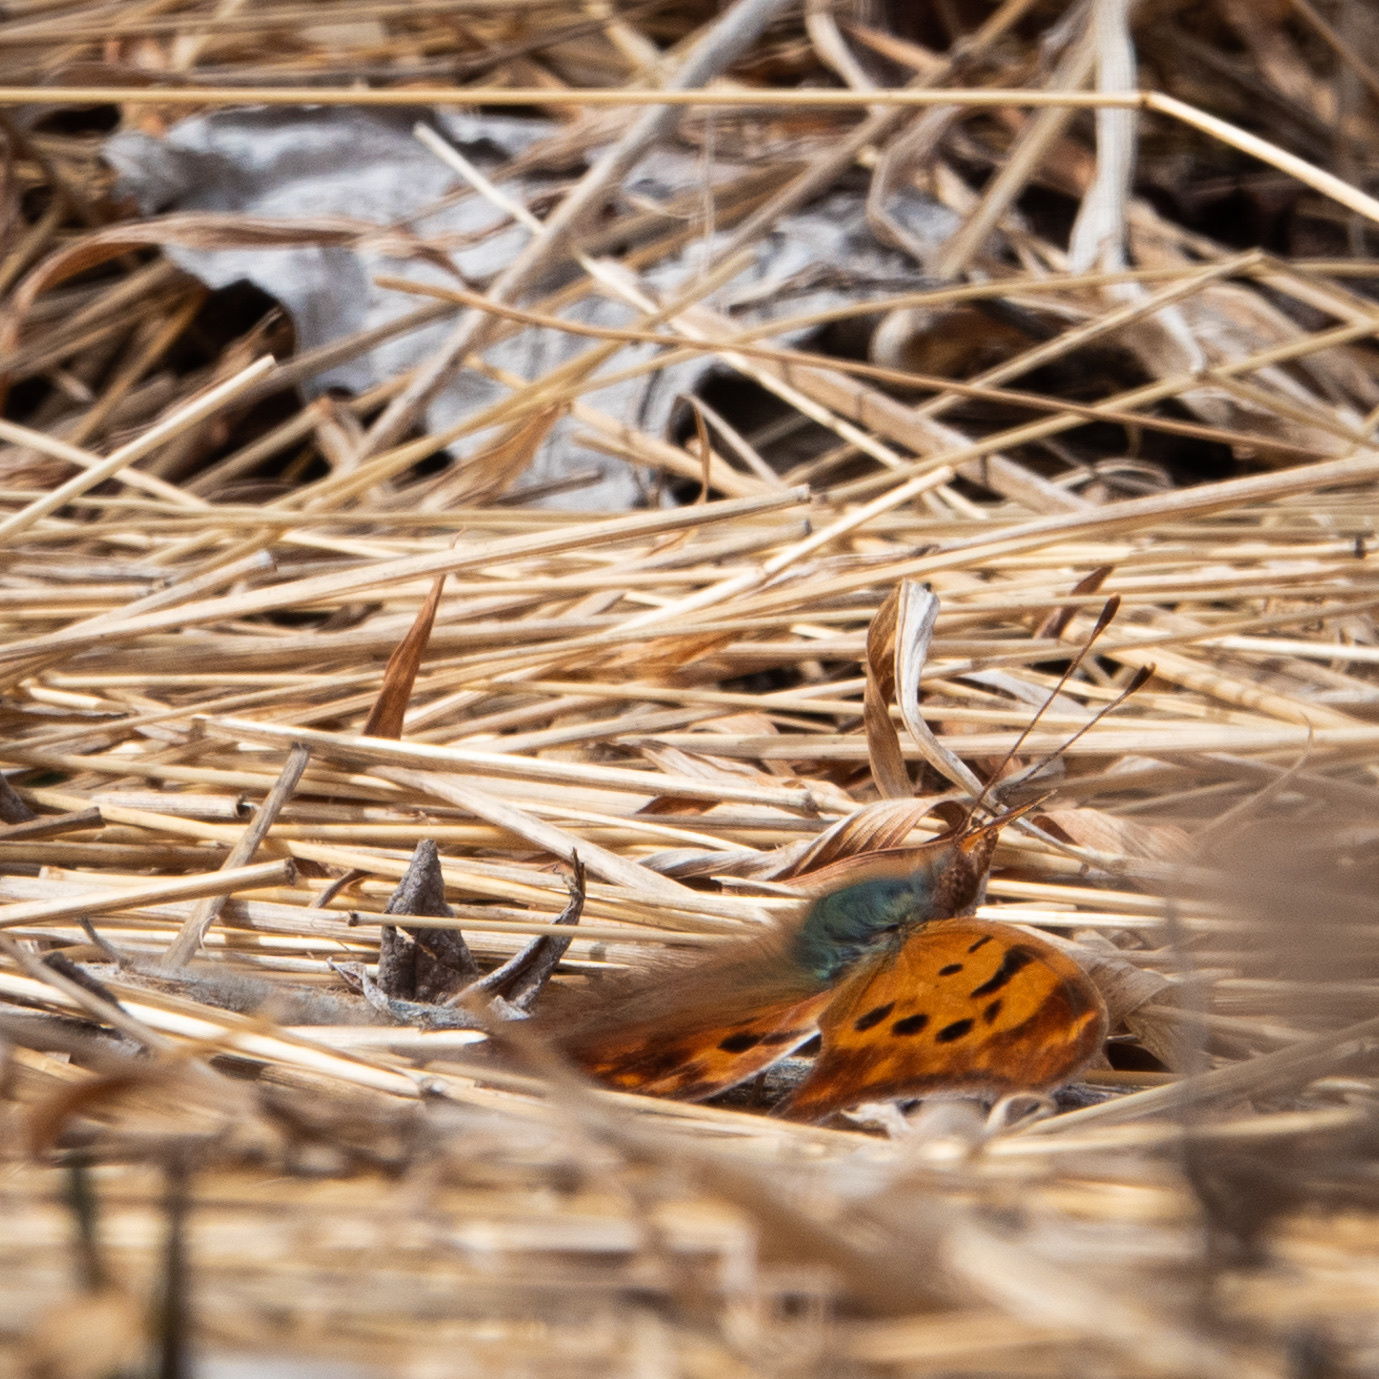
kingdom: Animalia
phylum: Arthropoda
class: Insecta
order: Lepidoptera
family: Nymphalidae
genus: Polygonia
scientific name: Polygonia interrogationis
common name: Question mark
